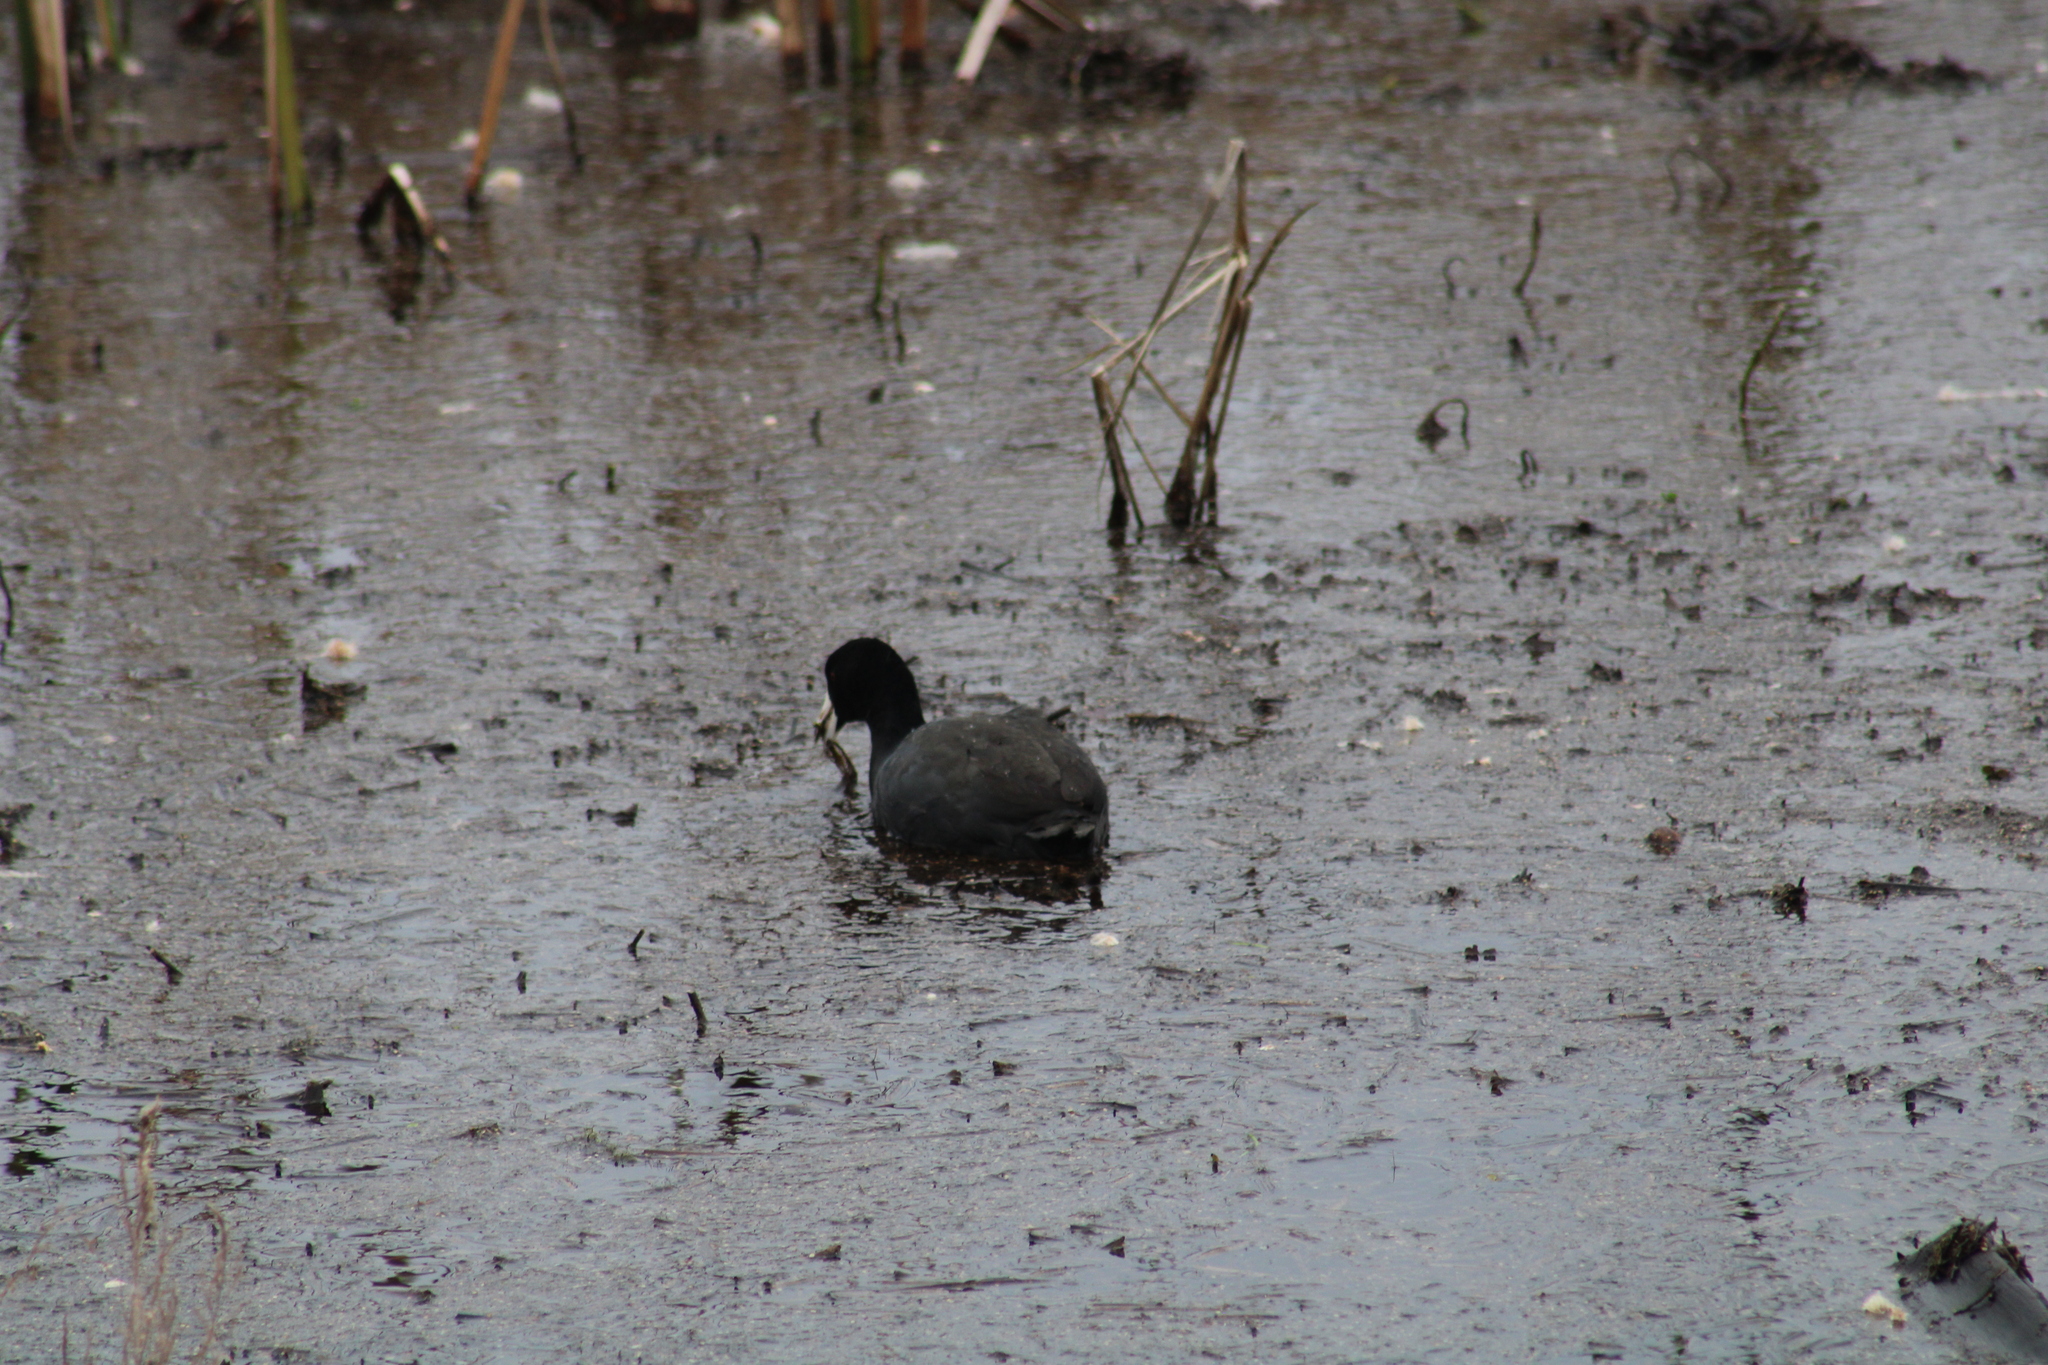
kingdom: Animalia
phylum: Chordata
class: Aves
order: Gruiformes
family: Rallidae
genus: Fulica
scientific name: Fulica americana
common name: American coot
